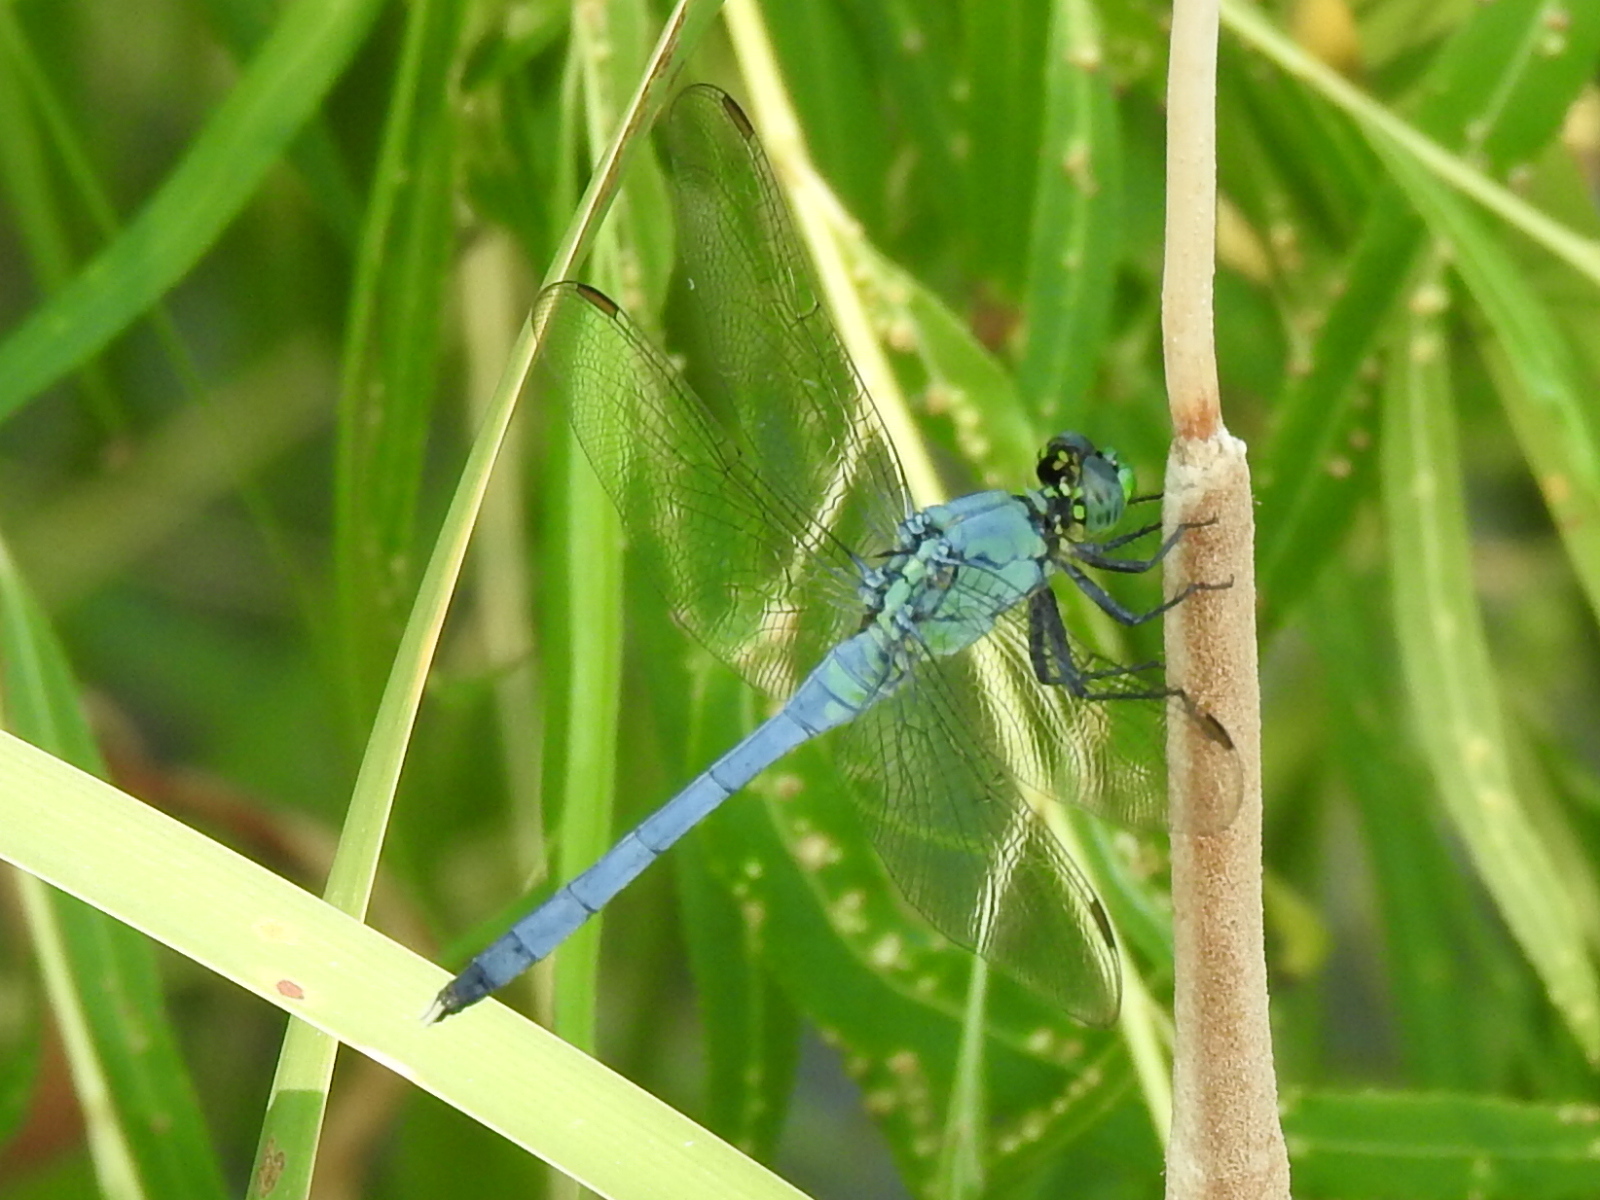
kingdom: Animalia
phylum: Arthropoda
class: Insecta
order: Odonata
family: Libellulidae
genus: Erythemis
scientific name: Erythemis simplicicollis
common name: Eastern pondhawk
